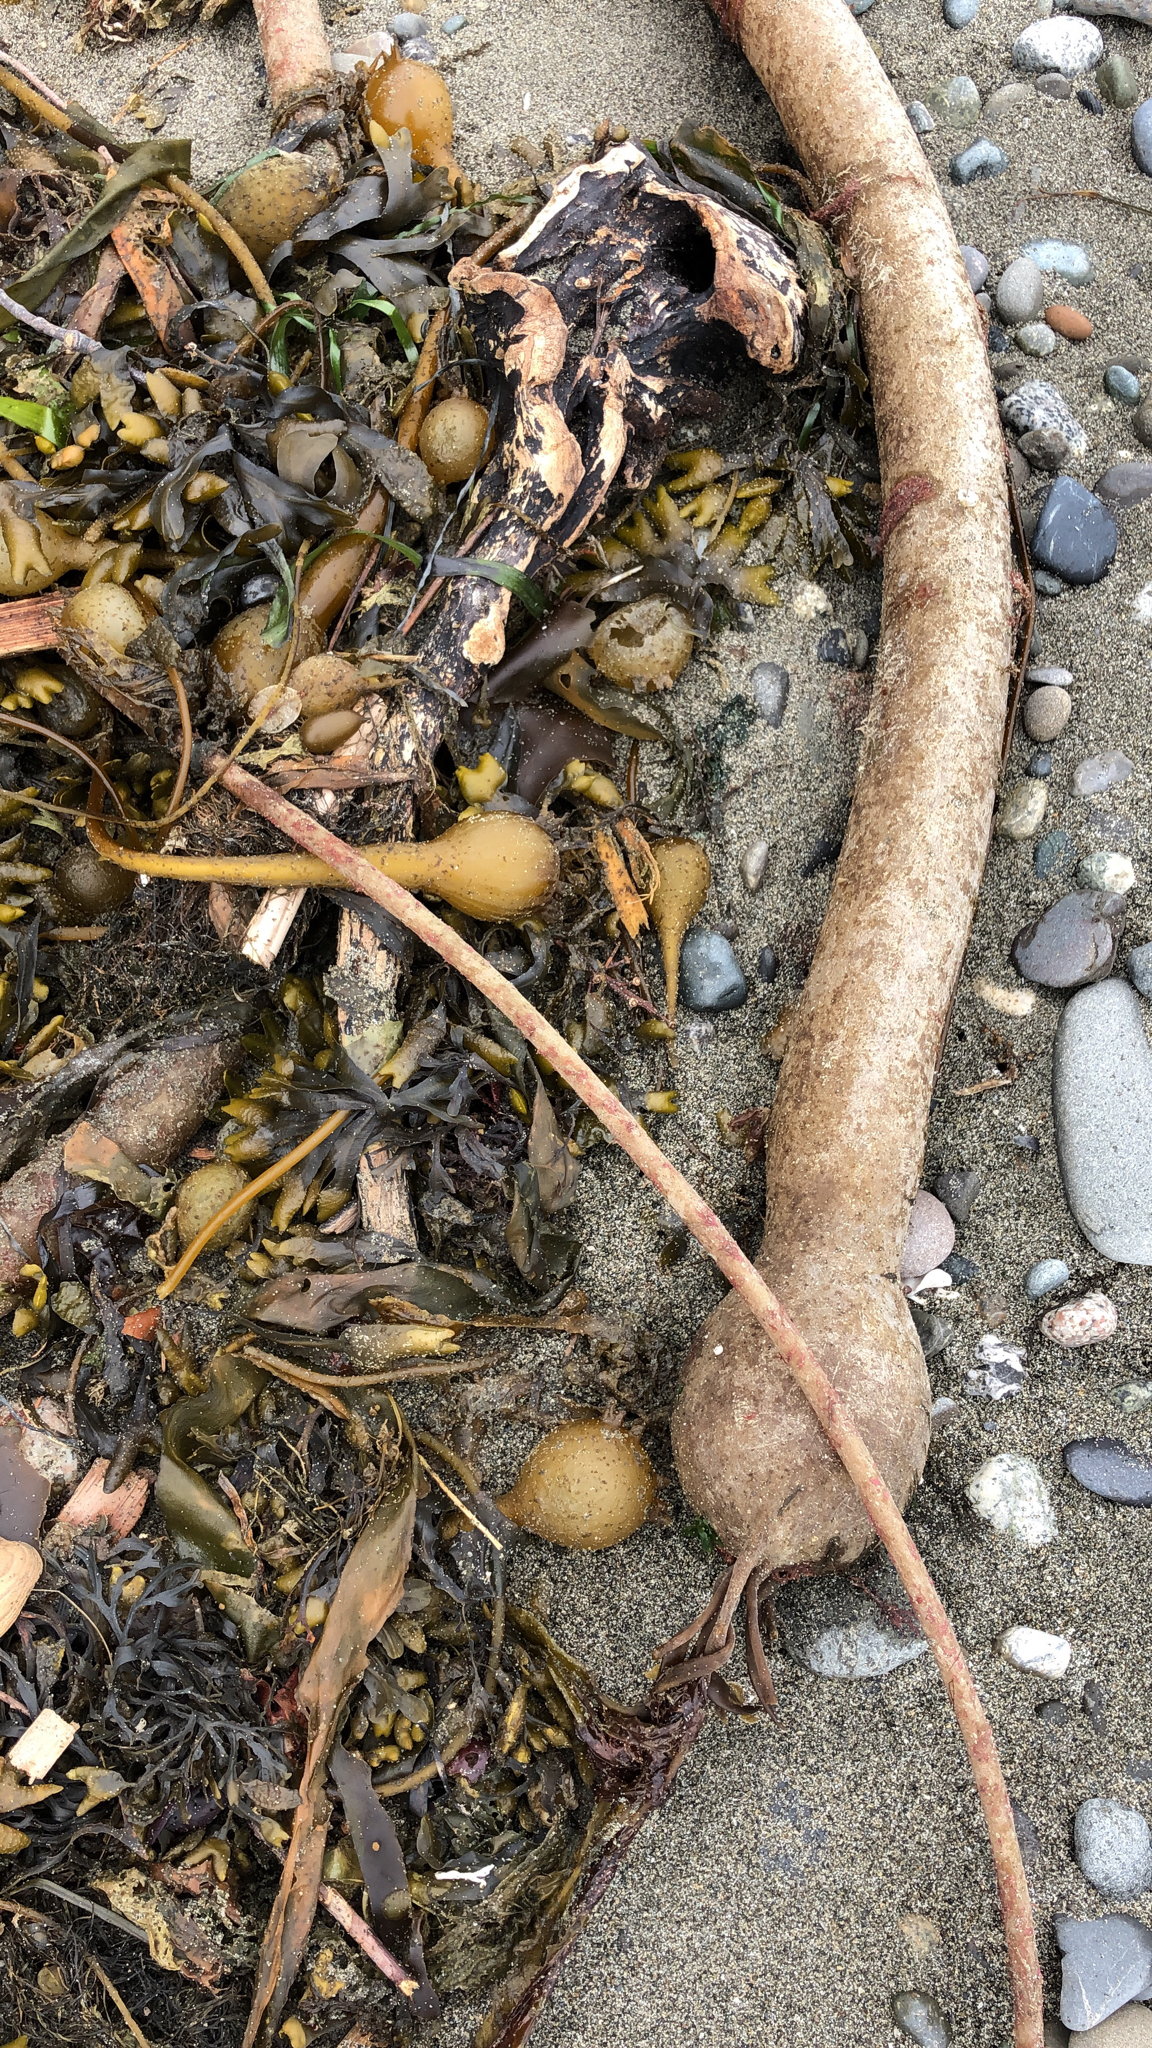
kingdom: Chromista
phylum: Ochrophyta
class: Phaeophyceae
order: Laminariales
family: Laminariaceae
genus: Nereocystis
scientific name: Nereocystis luetkeana
